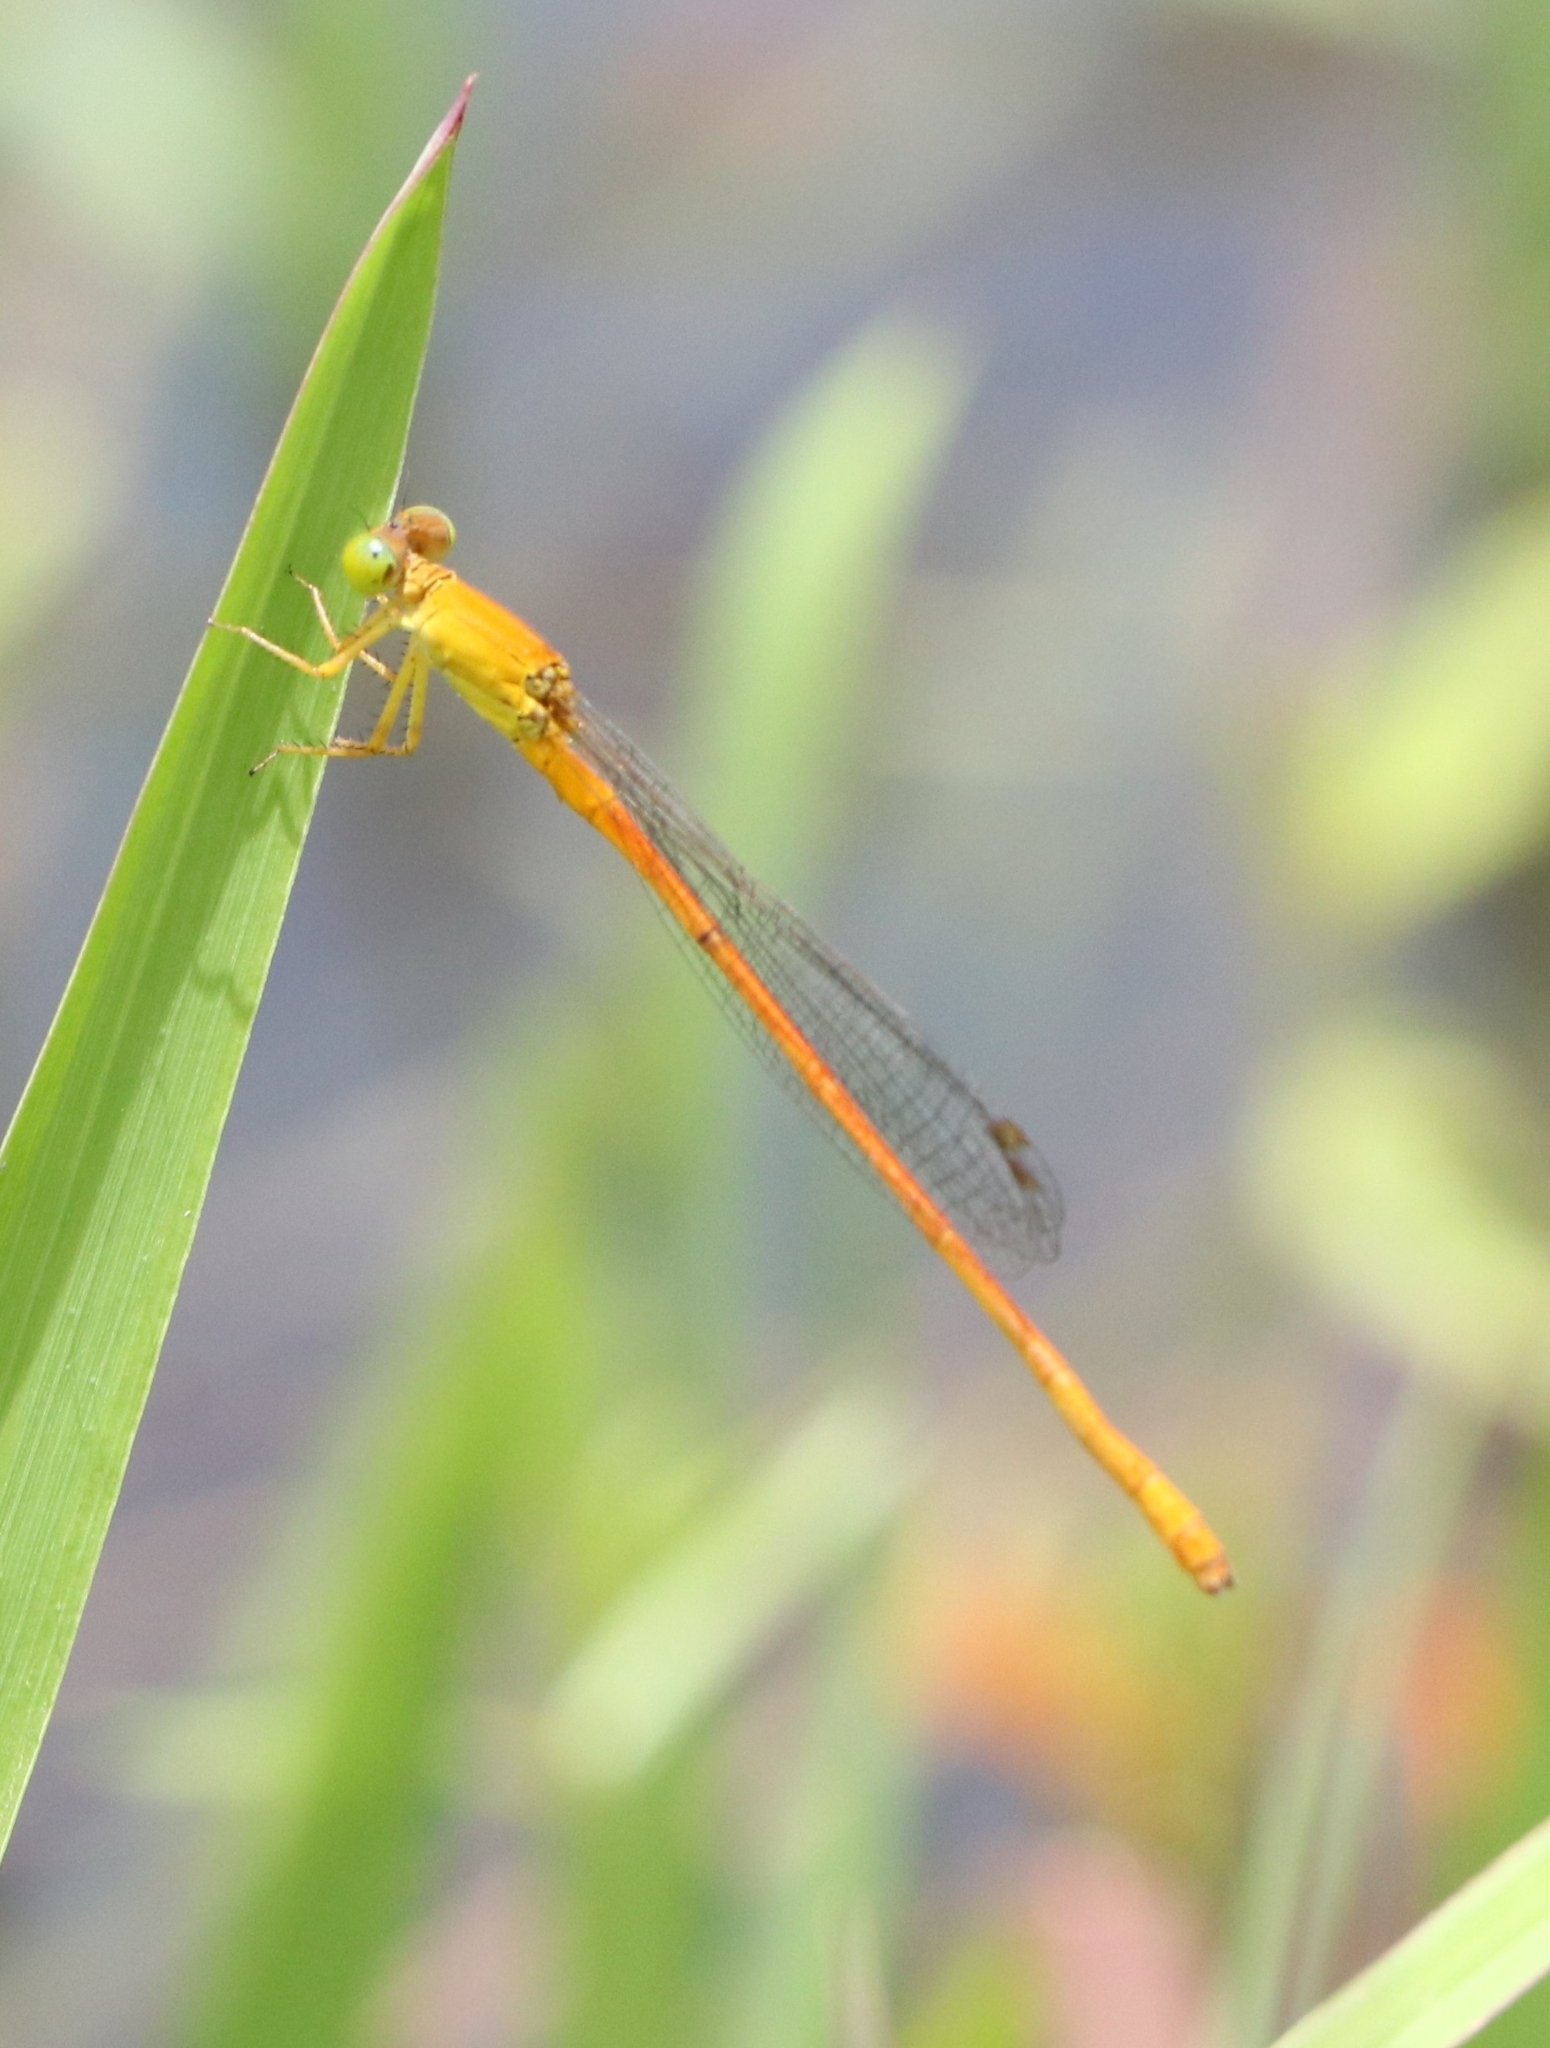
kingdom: Animalia
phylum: Arthropoda
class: Insecta
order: Odonata
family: Coenagrionidae
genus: Ceriagrion
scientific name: Ceriagrion rubiae
